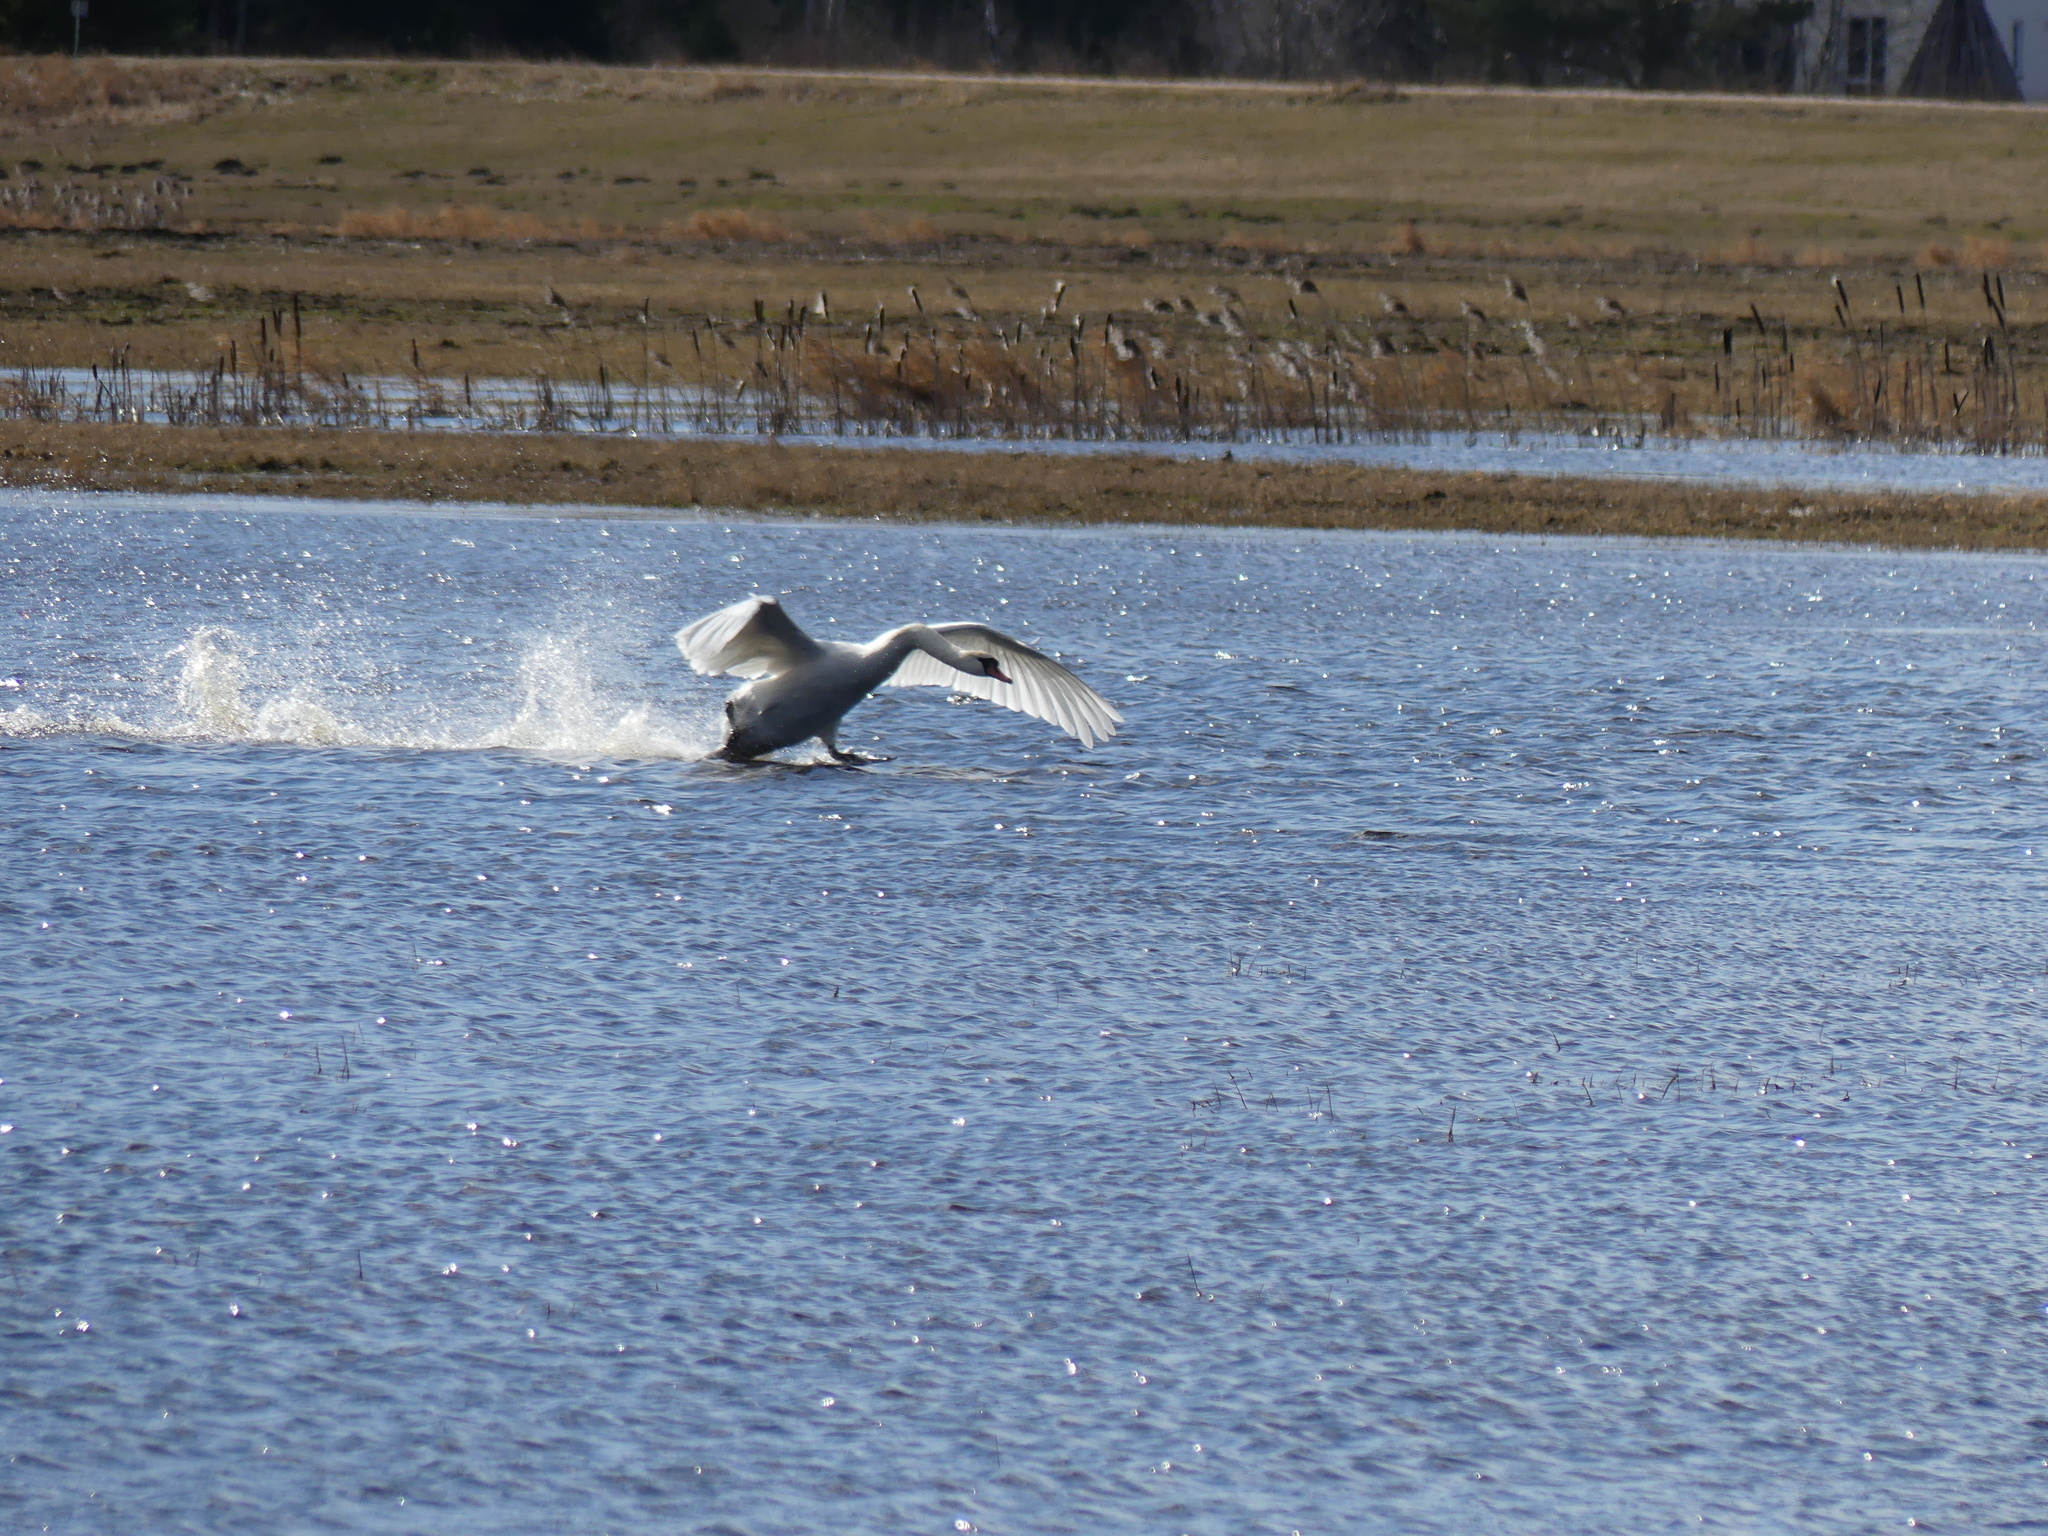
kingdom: Animalia
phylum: Chordata
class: Aves
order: Anseriformes
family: Anatidae
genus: Cygnus
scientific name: Cygnus olor
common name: Mute swan
